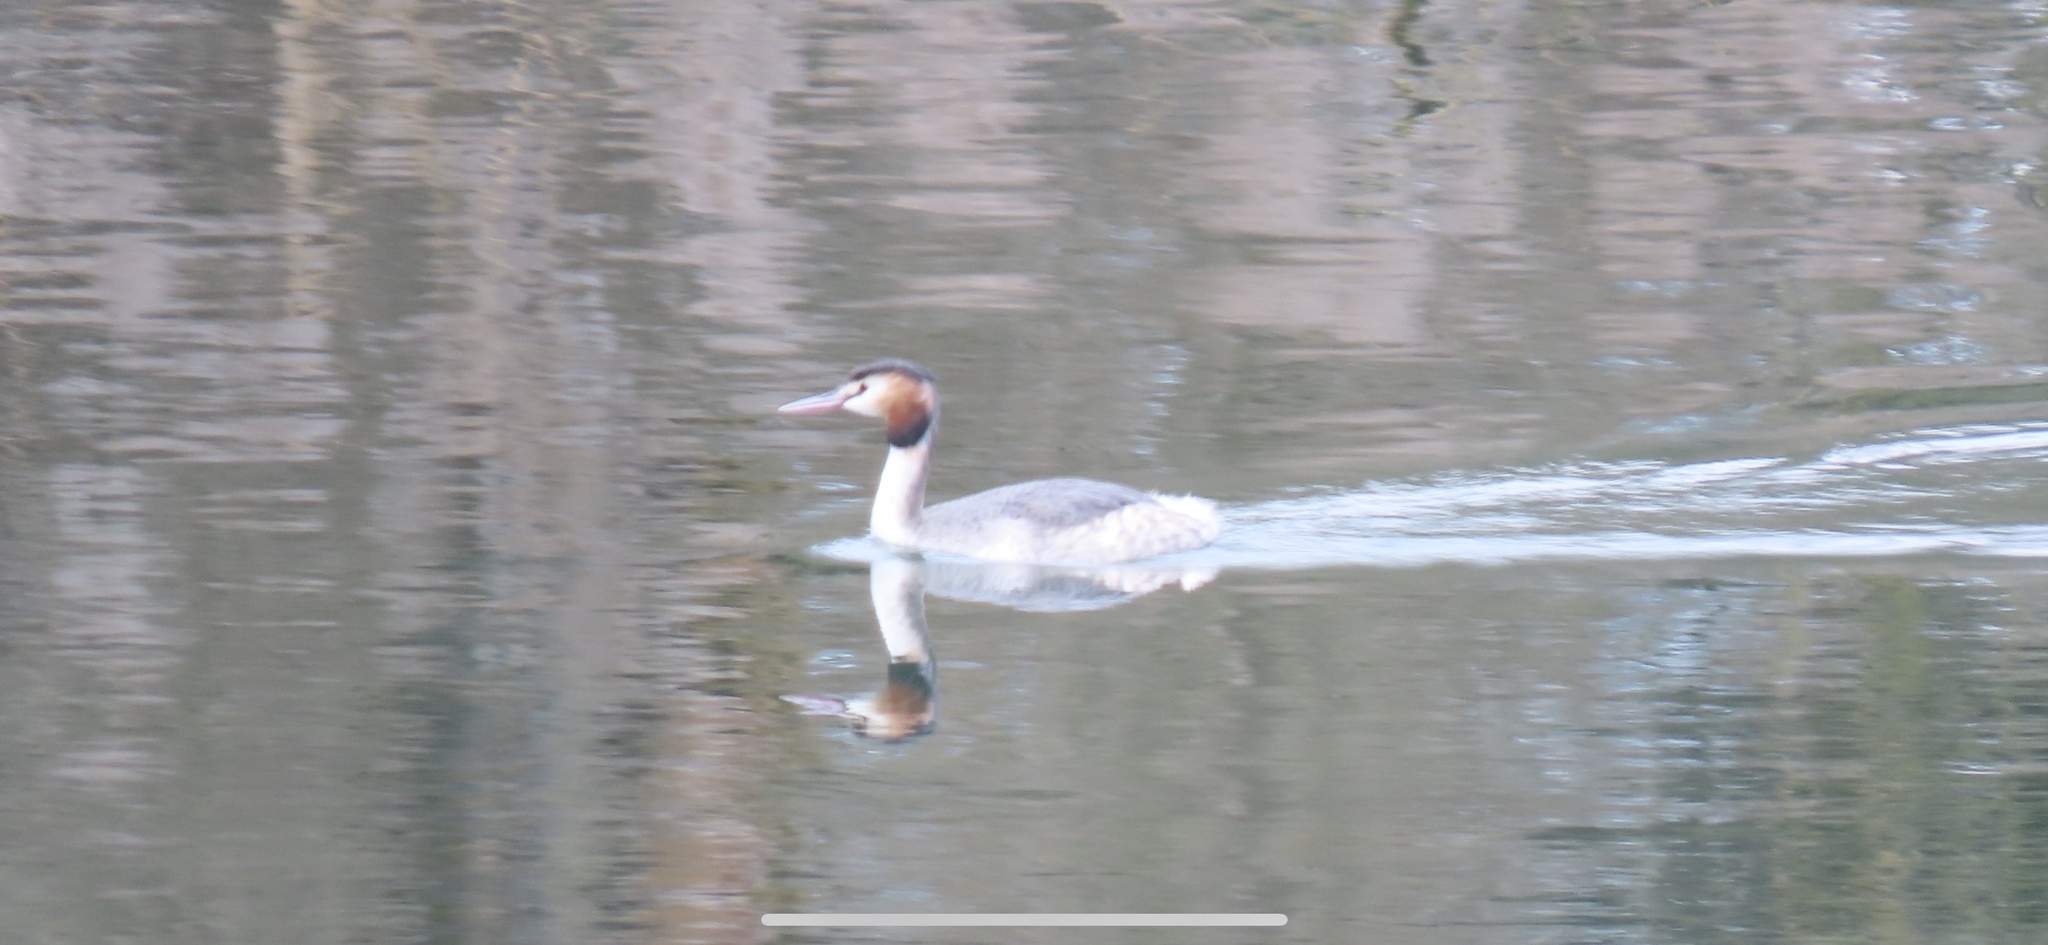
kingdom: Animalia
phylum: Chordata
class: Aves
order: Podicipediformes
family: Podicipedidae
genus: Podiceps
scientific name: Podiceps cristatus
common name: Great crested grebe
